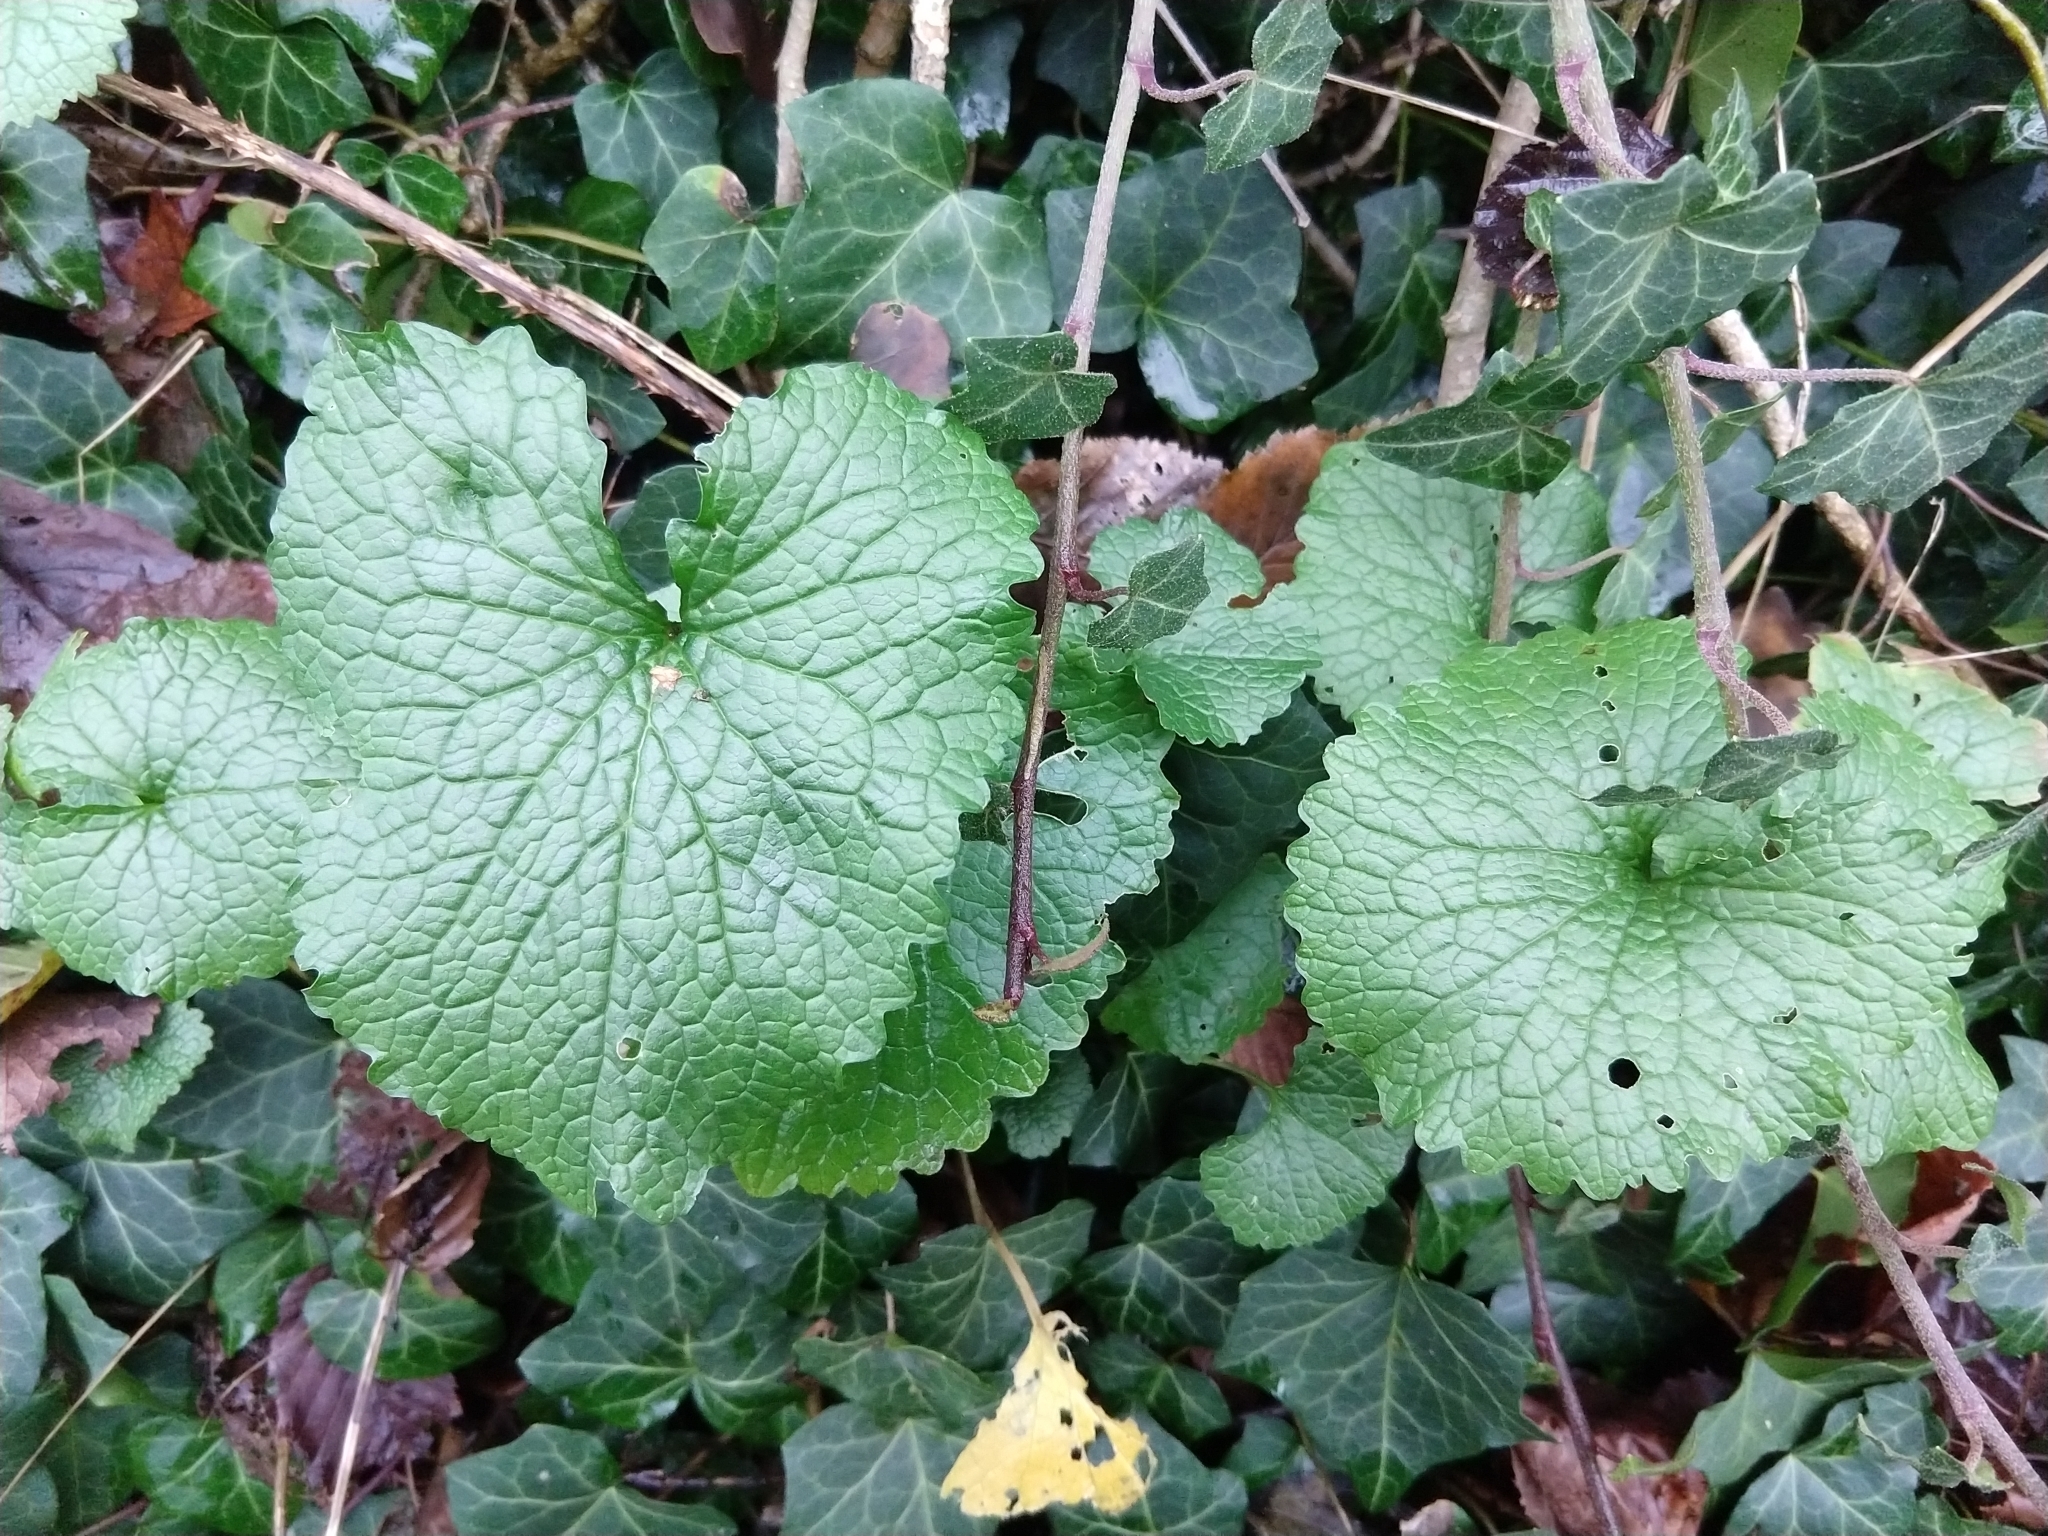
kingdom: Plantae
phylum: Tracheophyta
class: Magnoliopsida
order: Brassicales
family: Brassicaceae
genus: Alliaria
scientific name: Alliaria petiolata
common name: Garlic mustard
